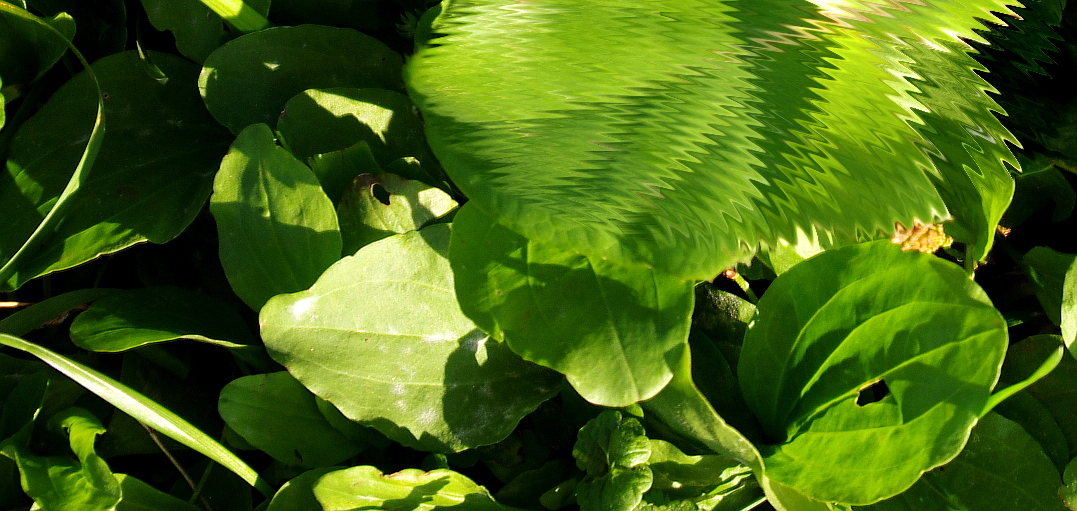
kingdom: Plantae
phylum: Tracheophyta
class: Magnoliopsida
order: Lamiales
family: Plantaginaceae
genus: Plantago
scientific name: Plantago major
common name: Common plantain
